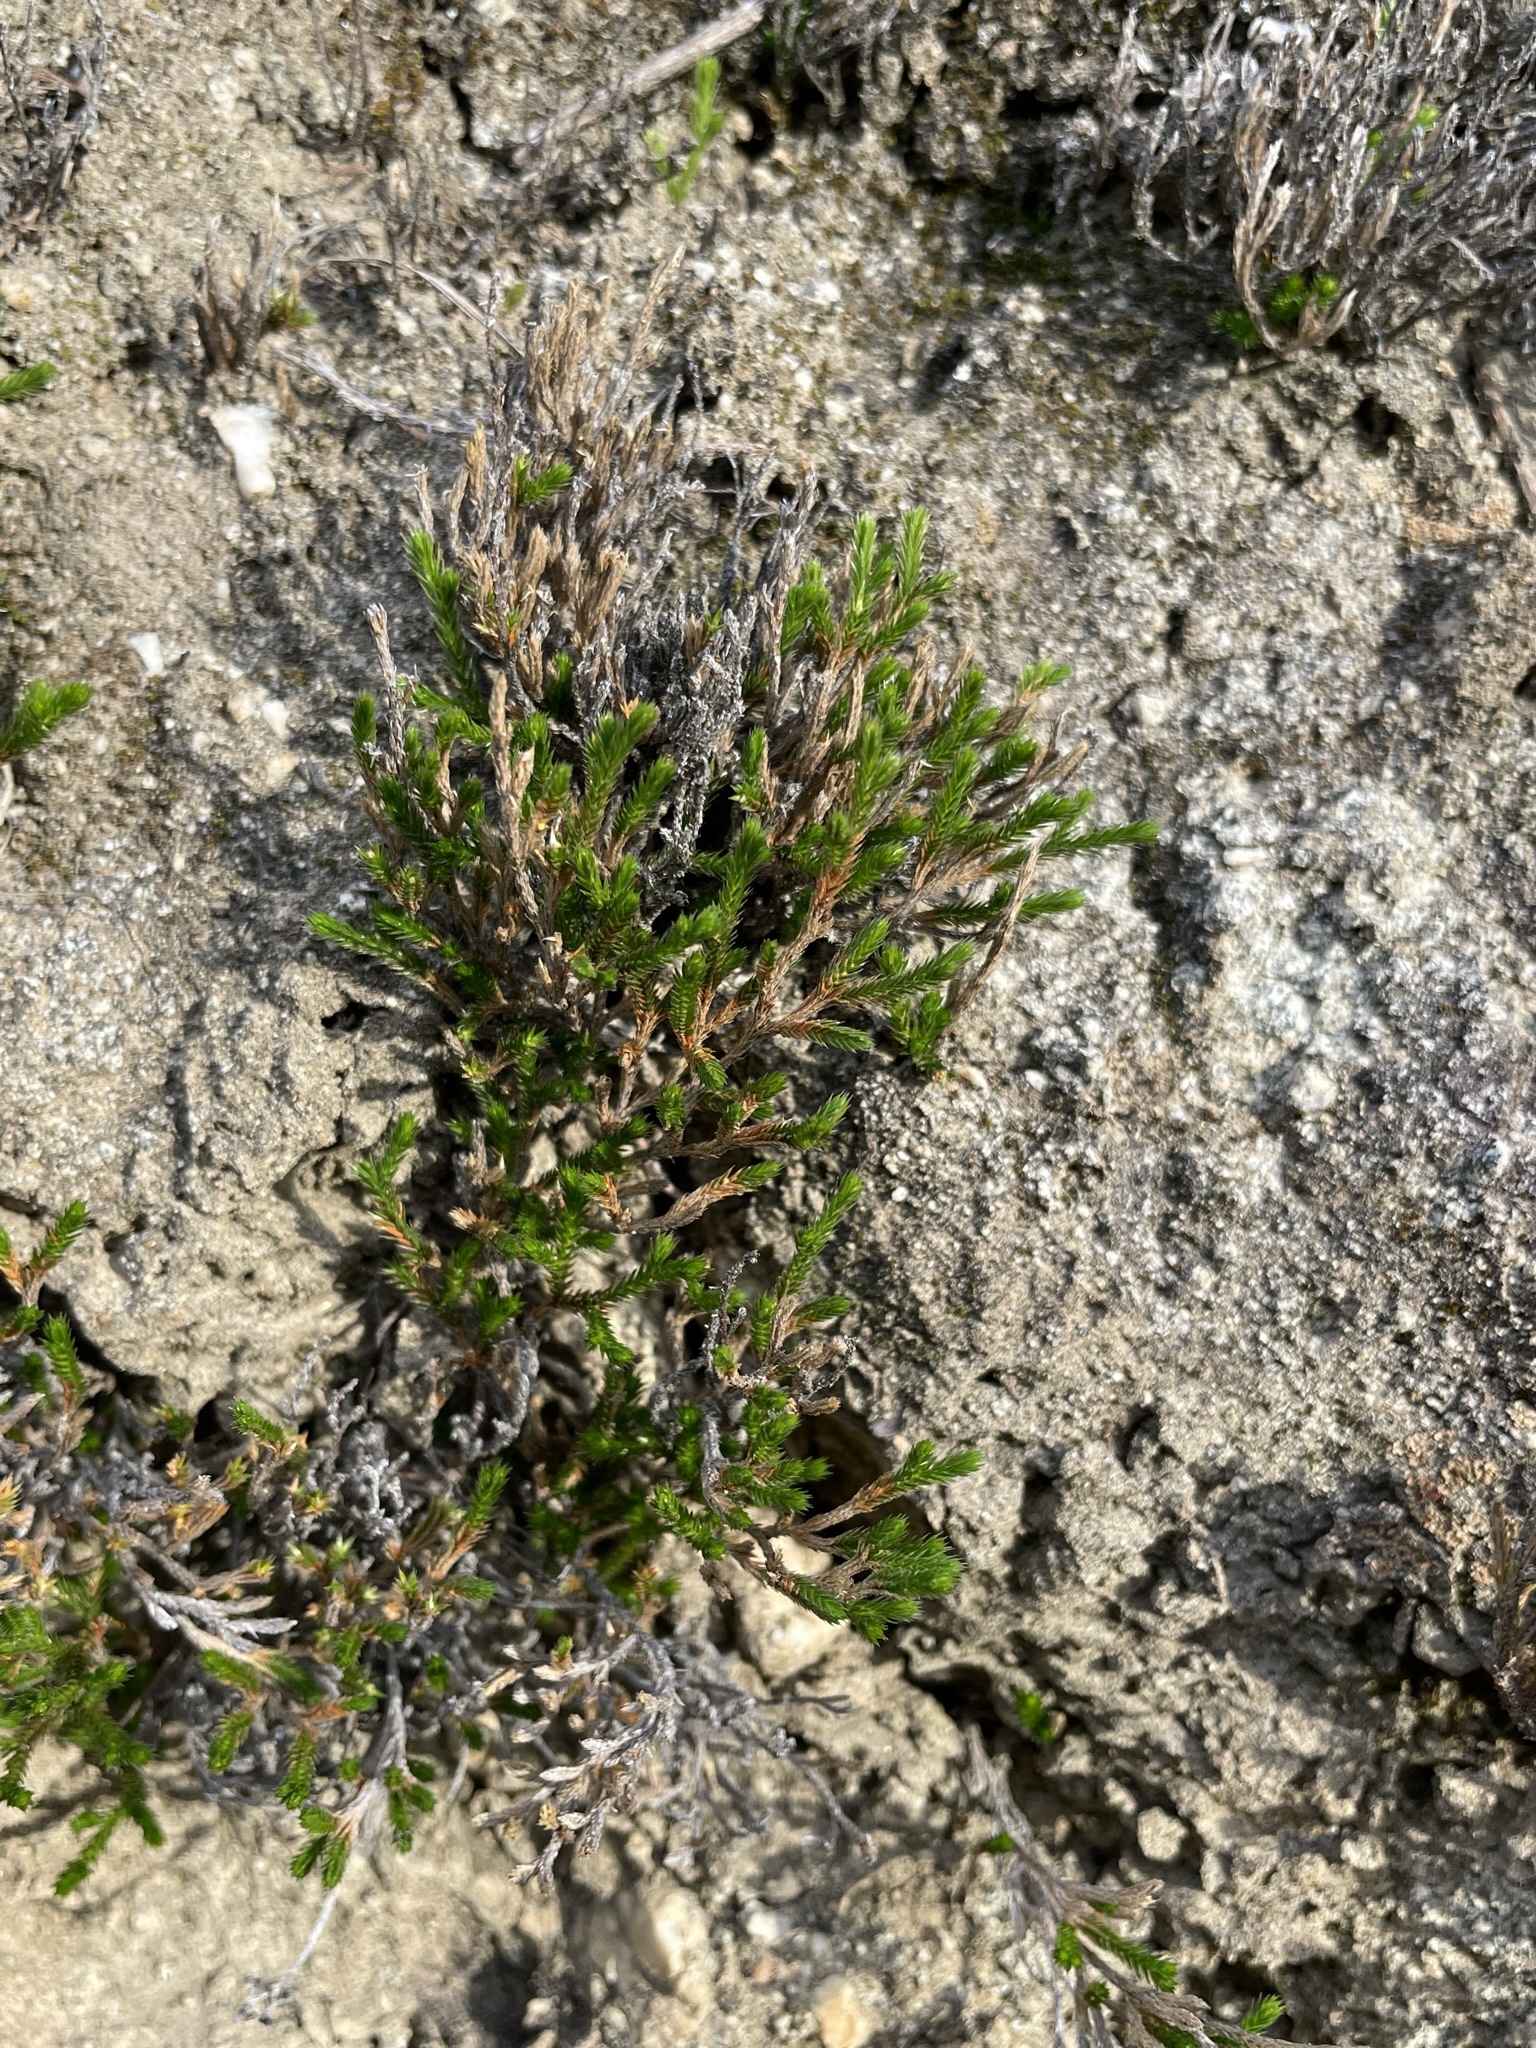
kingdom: Plantae
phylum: Tracheophyta
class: Lycopodiopsida
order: Selaginellales
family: Selaginellaceae
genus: Selaginella
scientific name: Selaginella bigelovii
